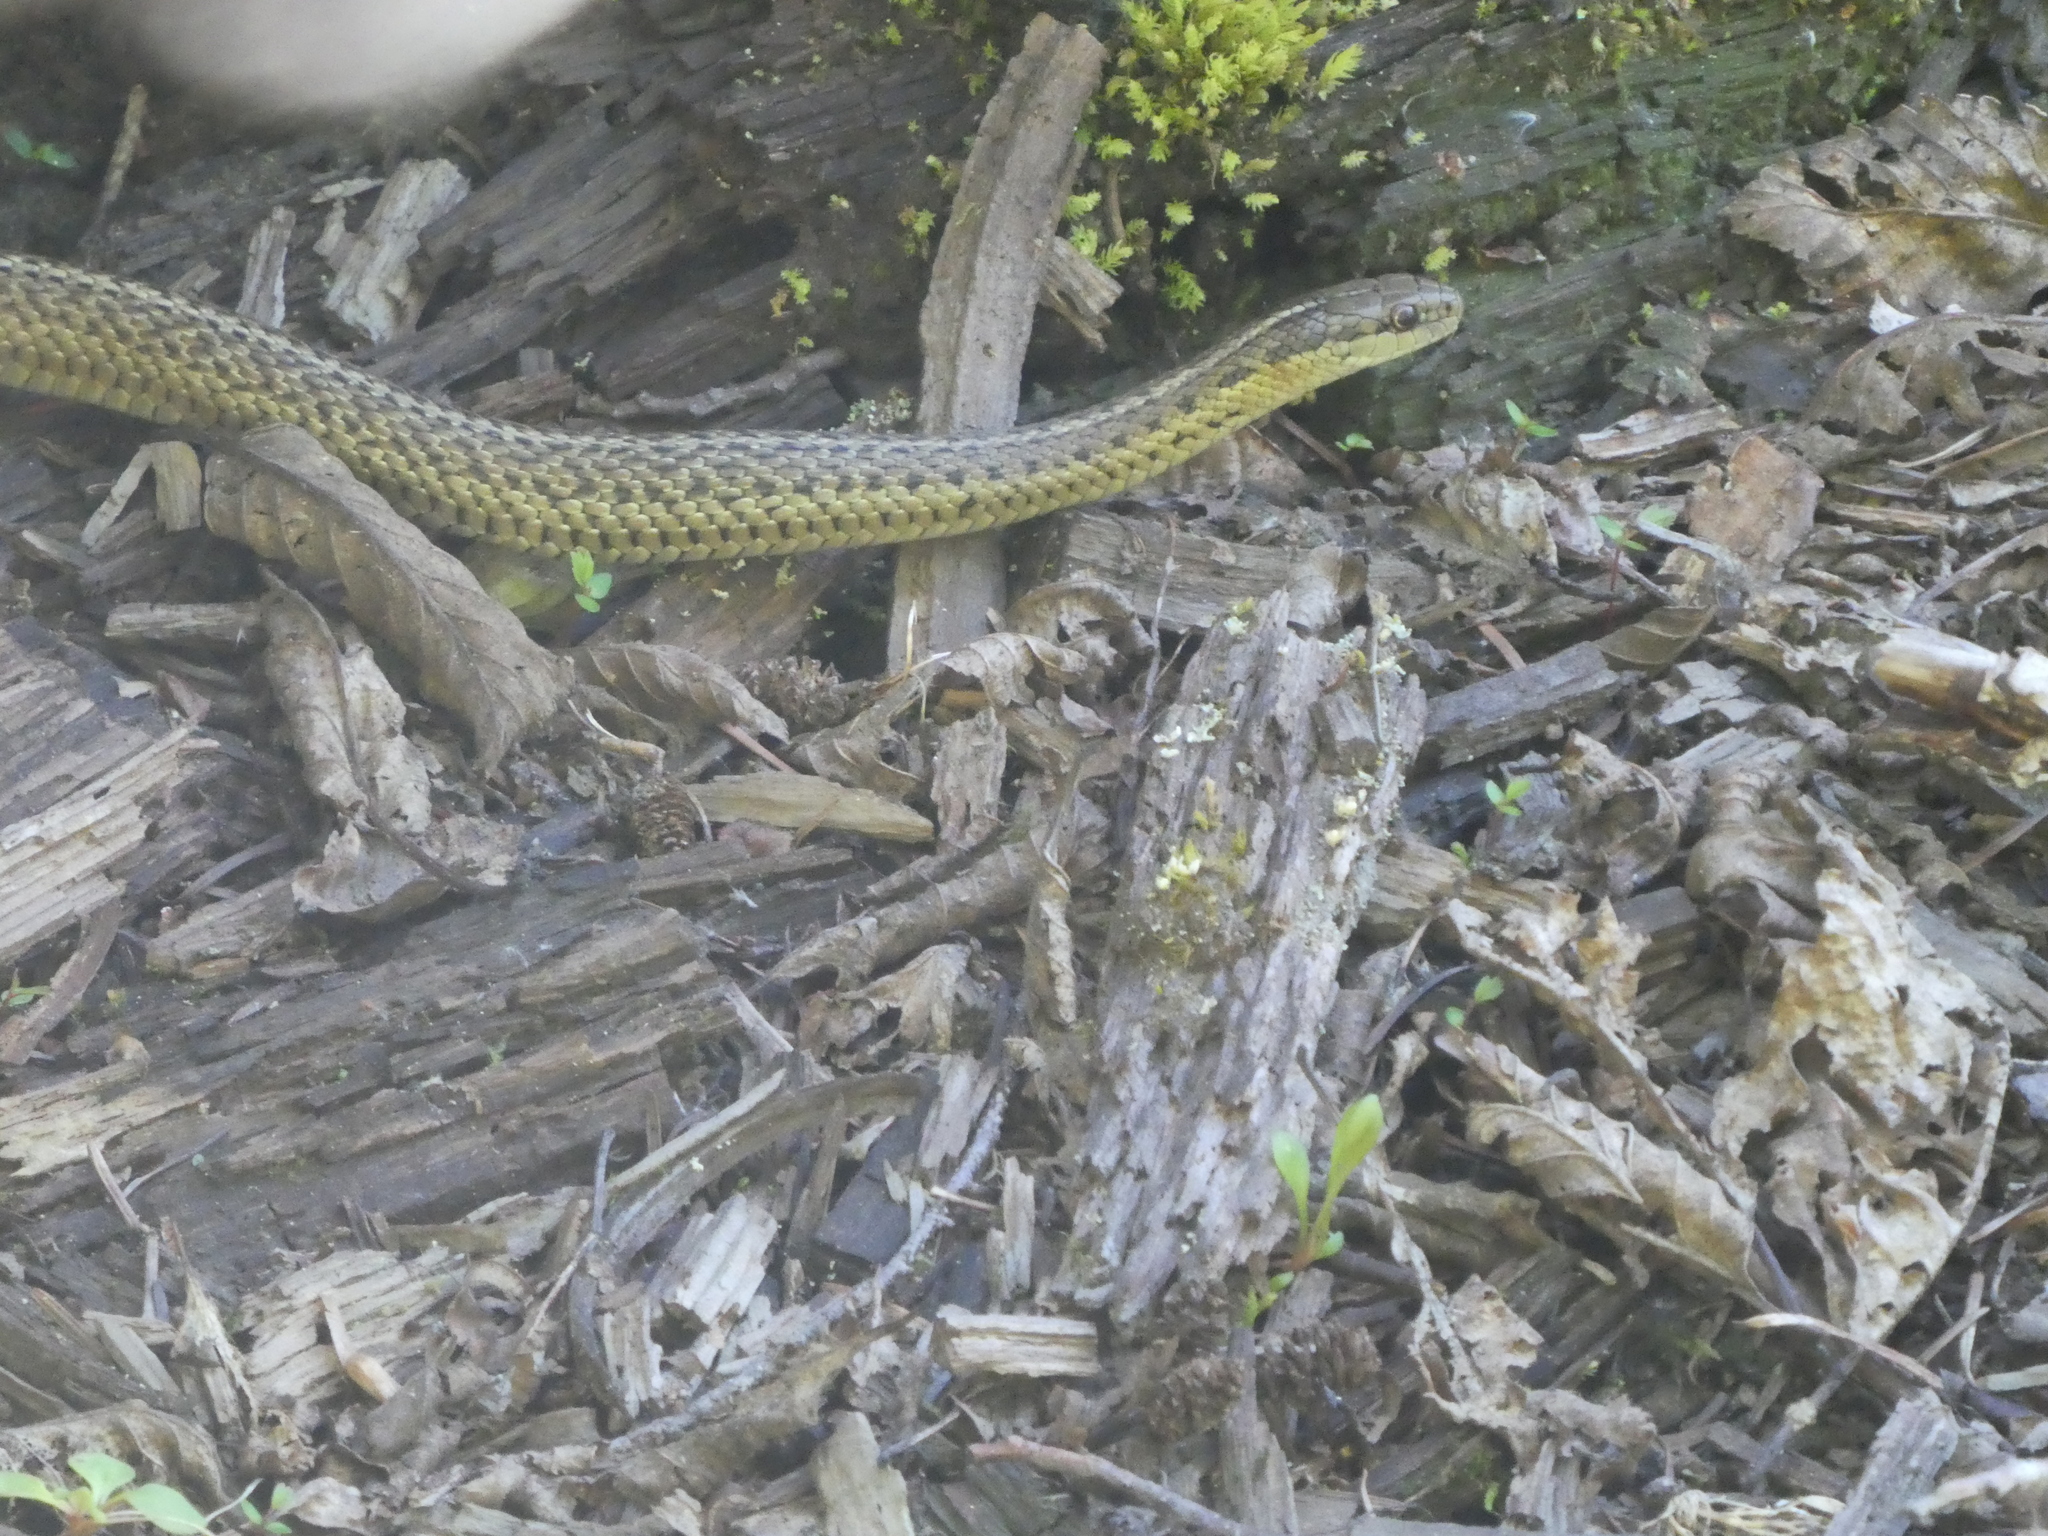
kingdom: Animalia
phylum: Chordata
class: Squamata
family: Colubridae
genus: Thamnophis
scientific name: Thamnophis ordinoides
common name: Northwestern garter snake
